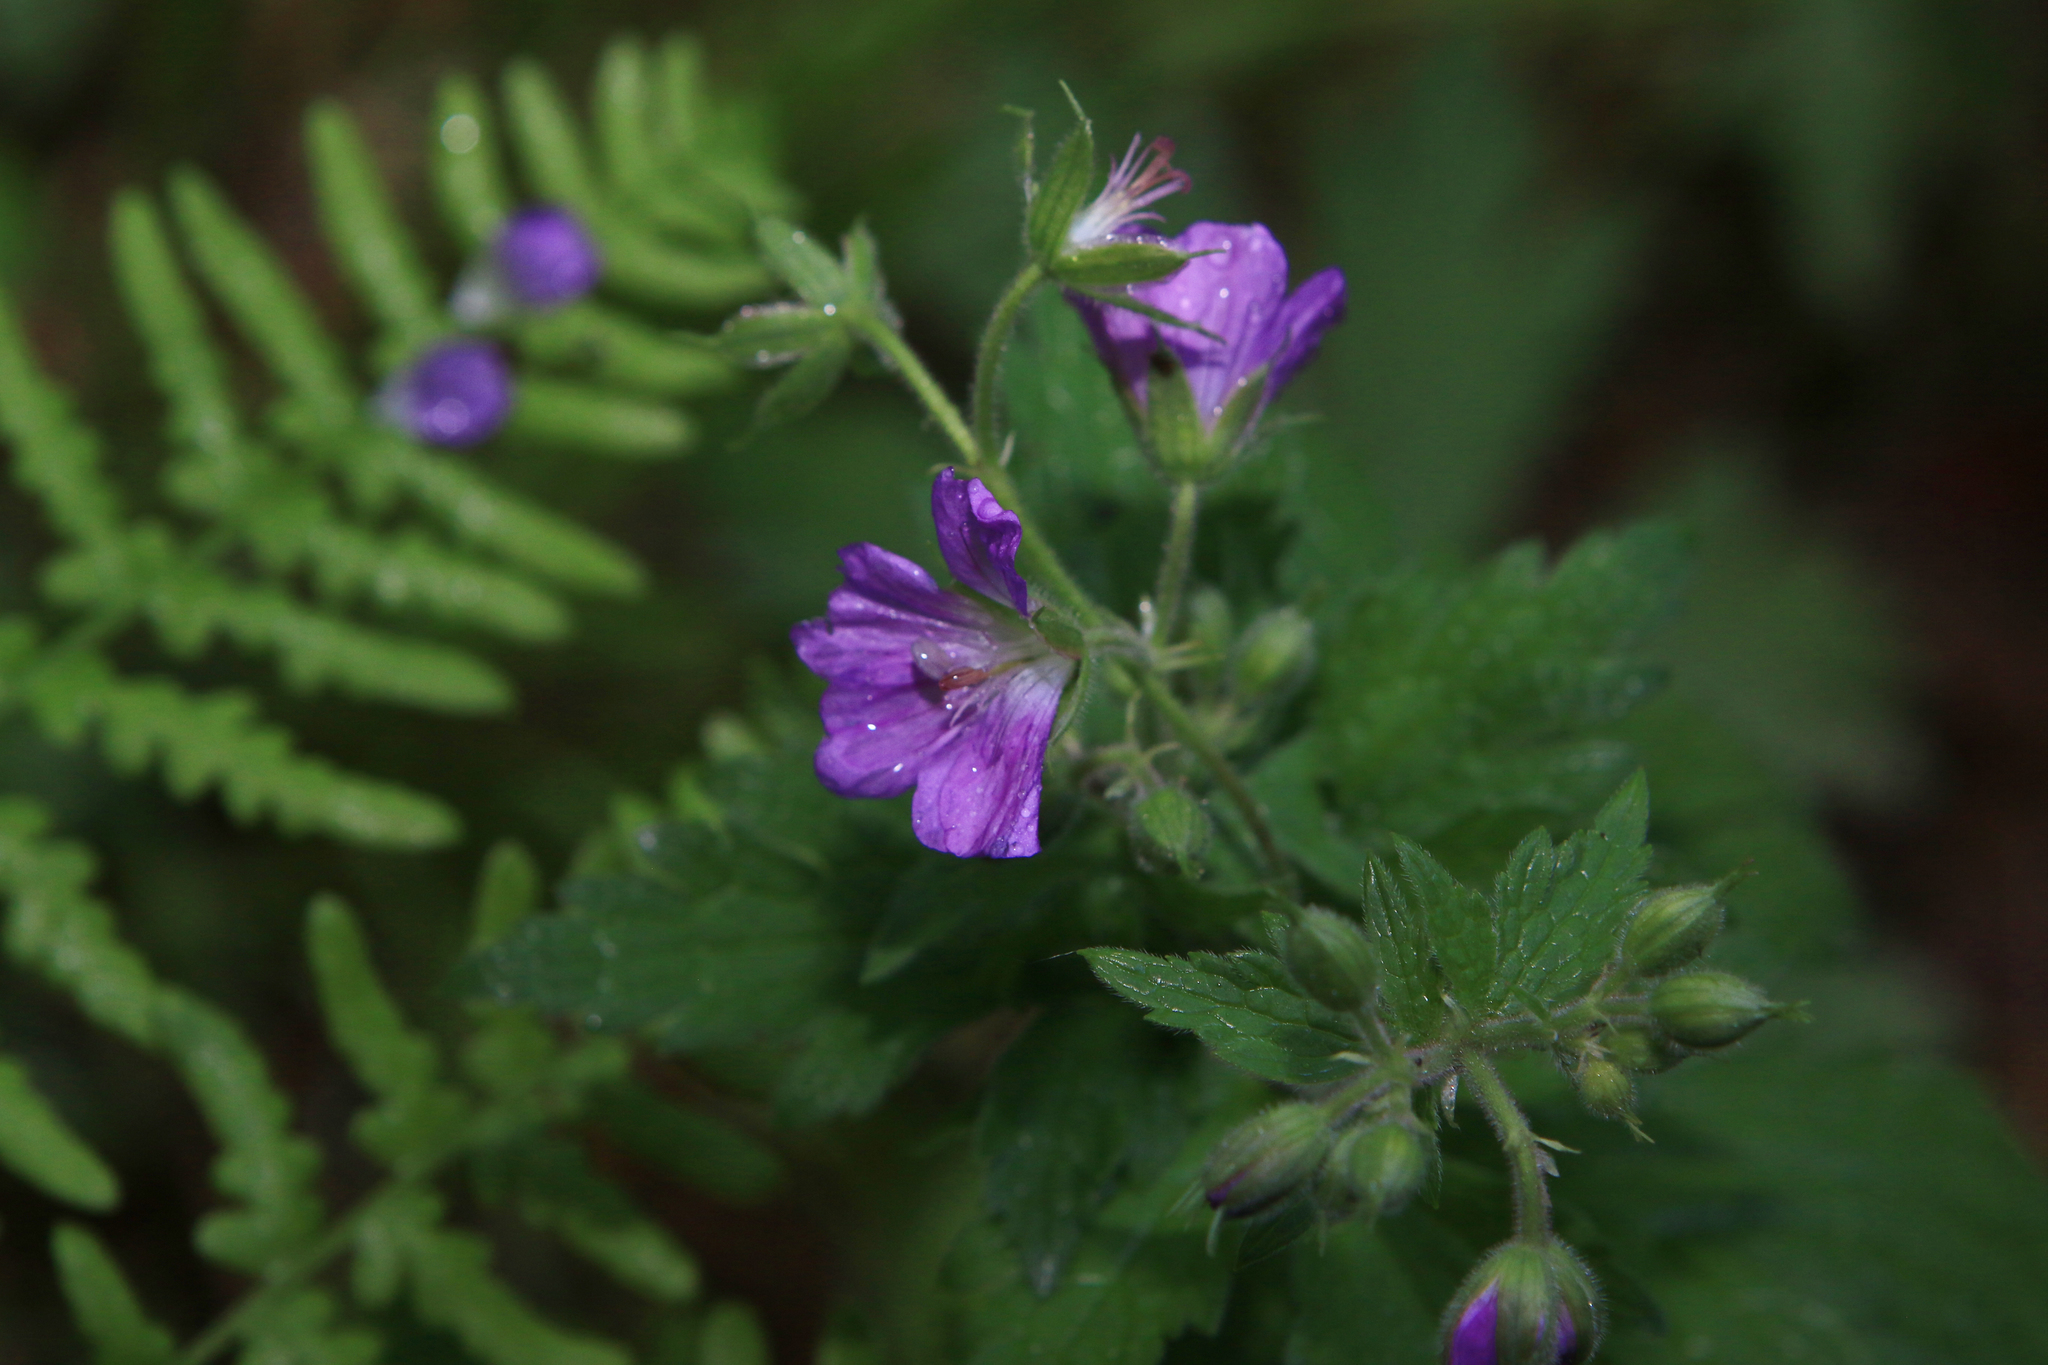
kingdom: Plantae
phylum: Tracheophyta
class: Magnoliopsida
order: Geraniales
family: Geraniaceae
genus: Geranium
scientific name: Geranium sylvaticum
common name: Wood crane's-bill
